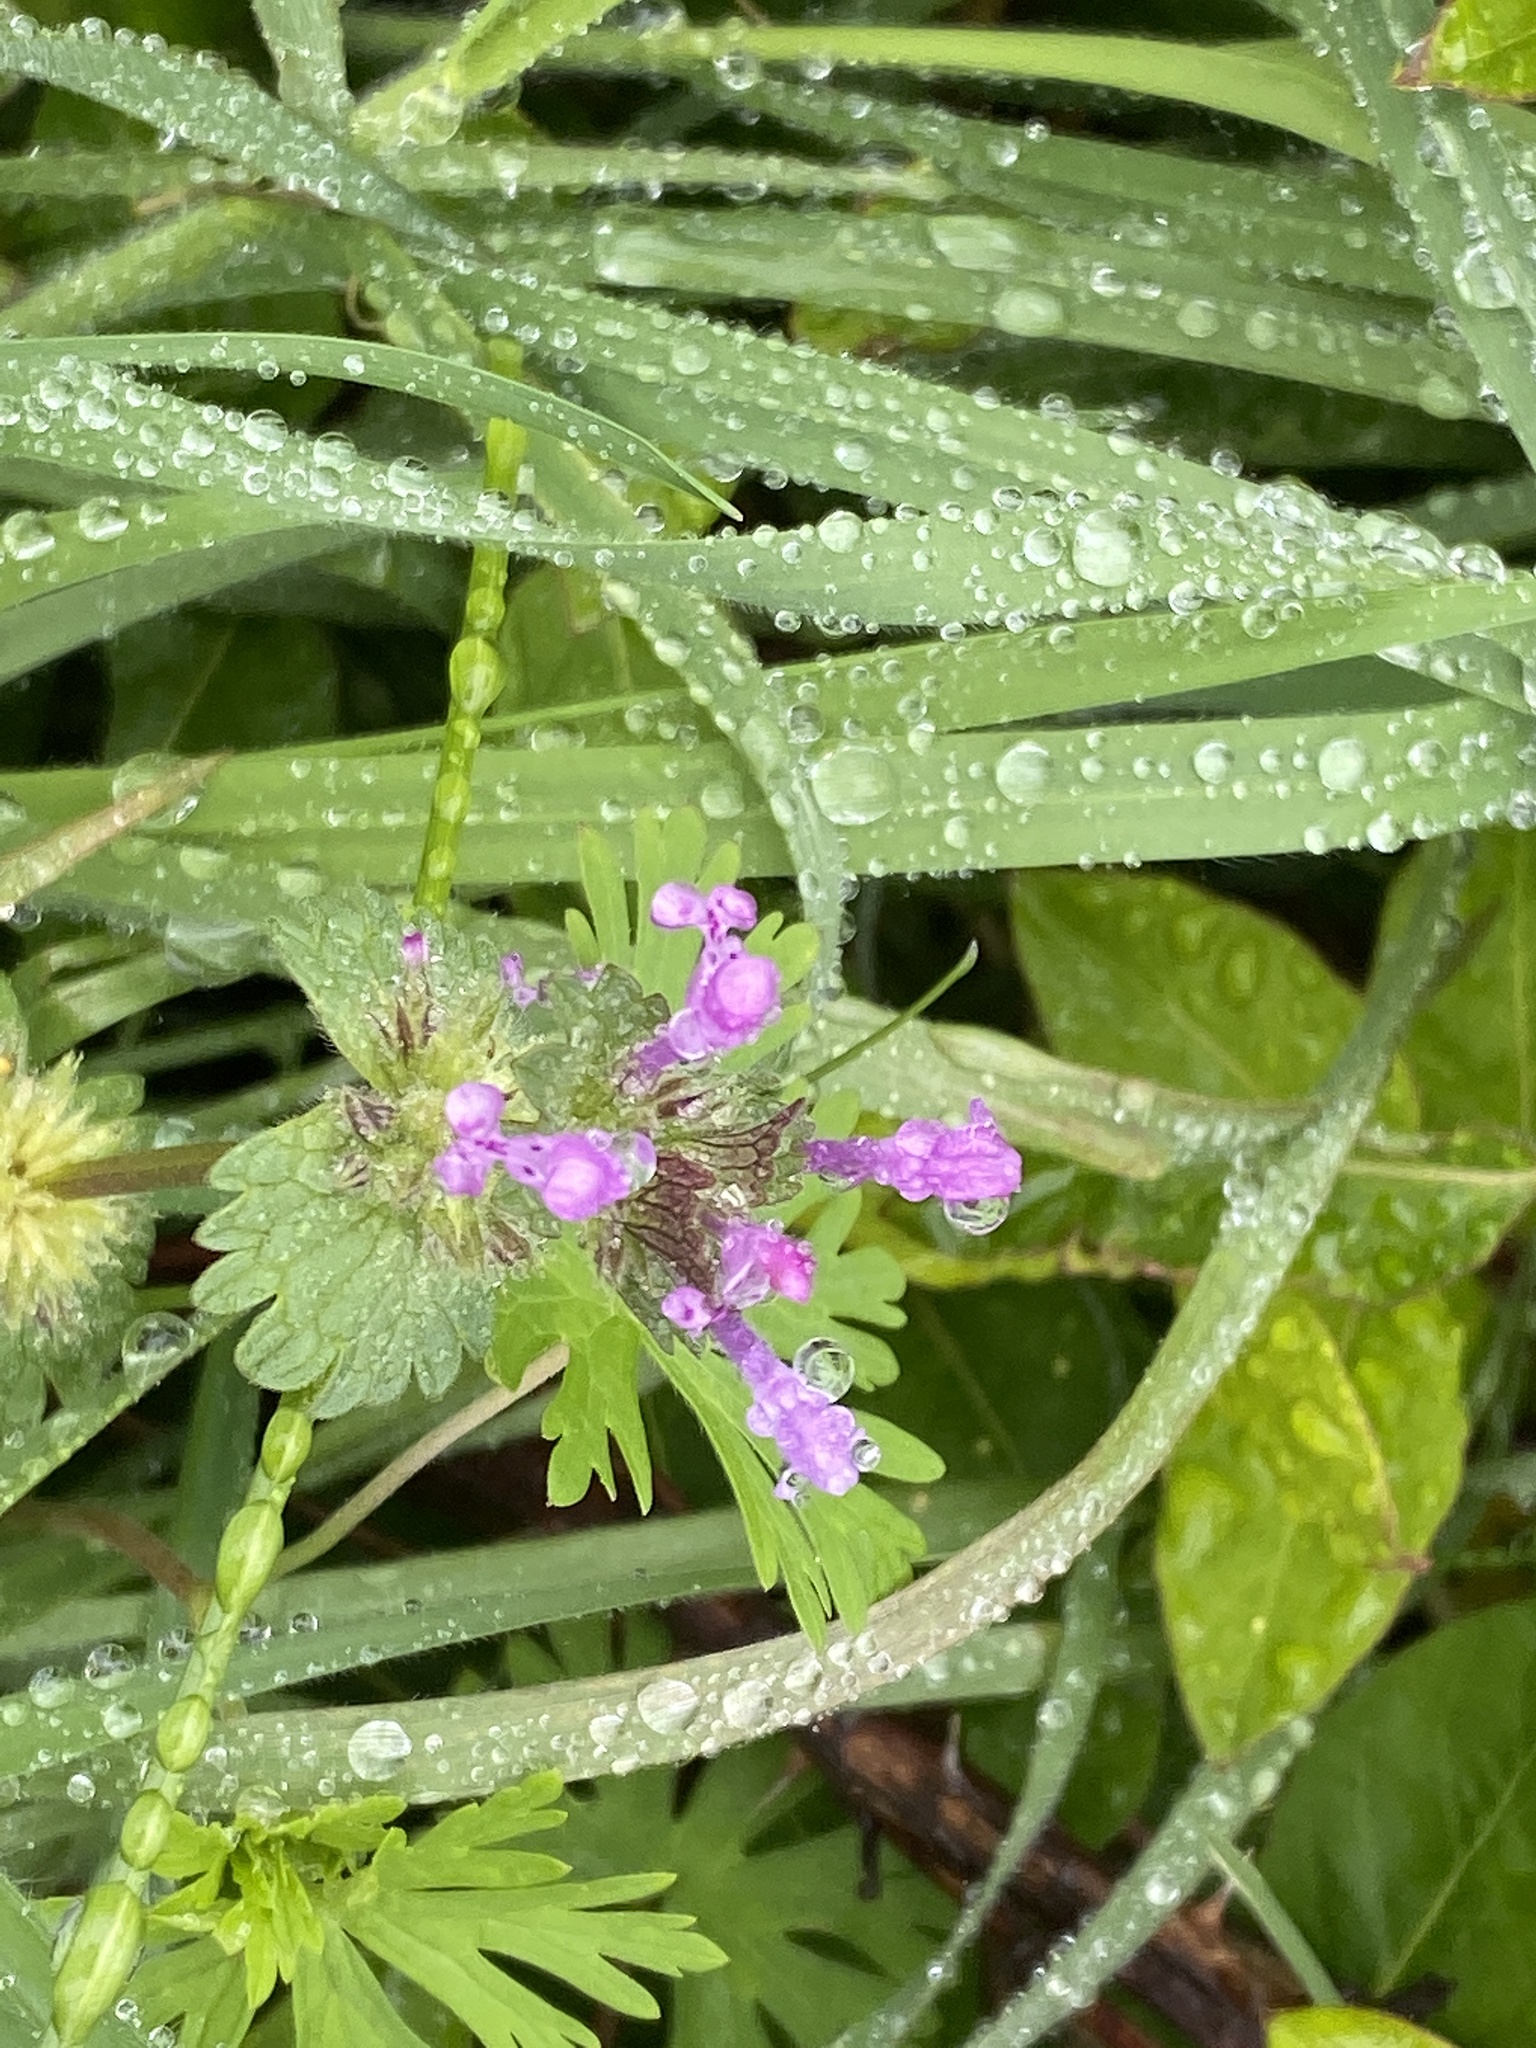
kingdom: Plantae
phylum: Tracheophyta
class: Magnoliopsida
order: Lamiales
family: Lamiaceae
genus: Lamium
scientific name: Lamium amplexicaule
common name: Henbit dead-nettle
